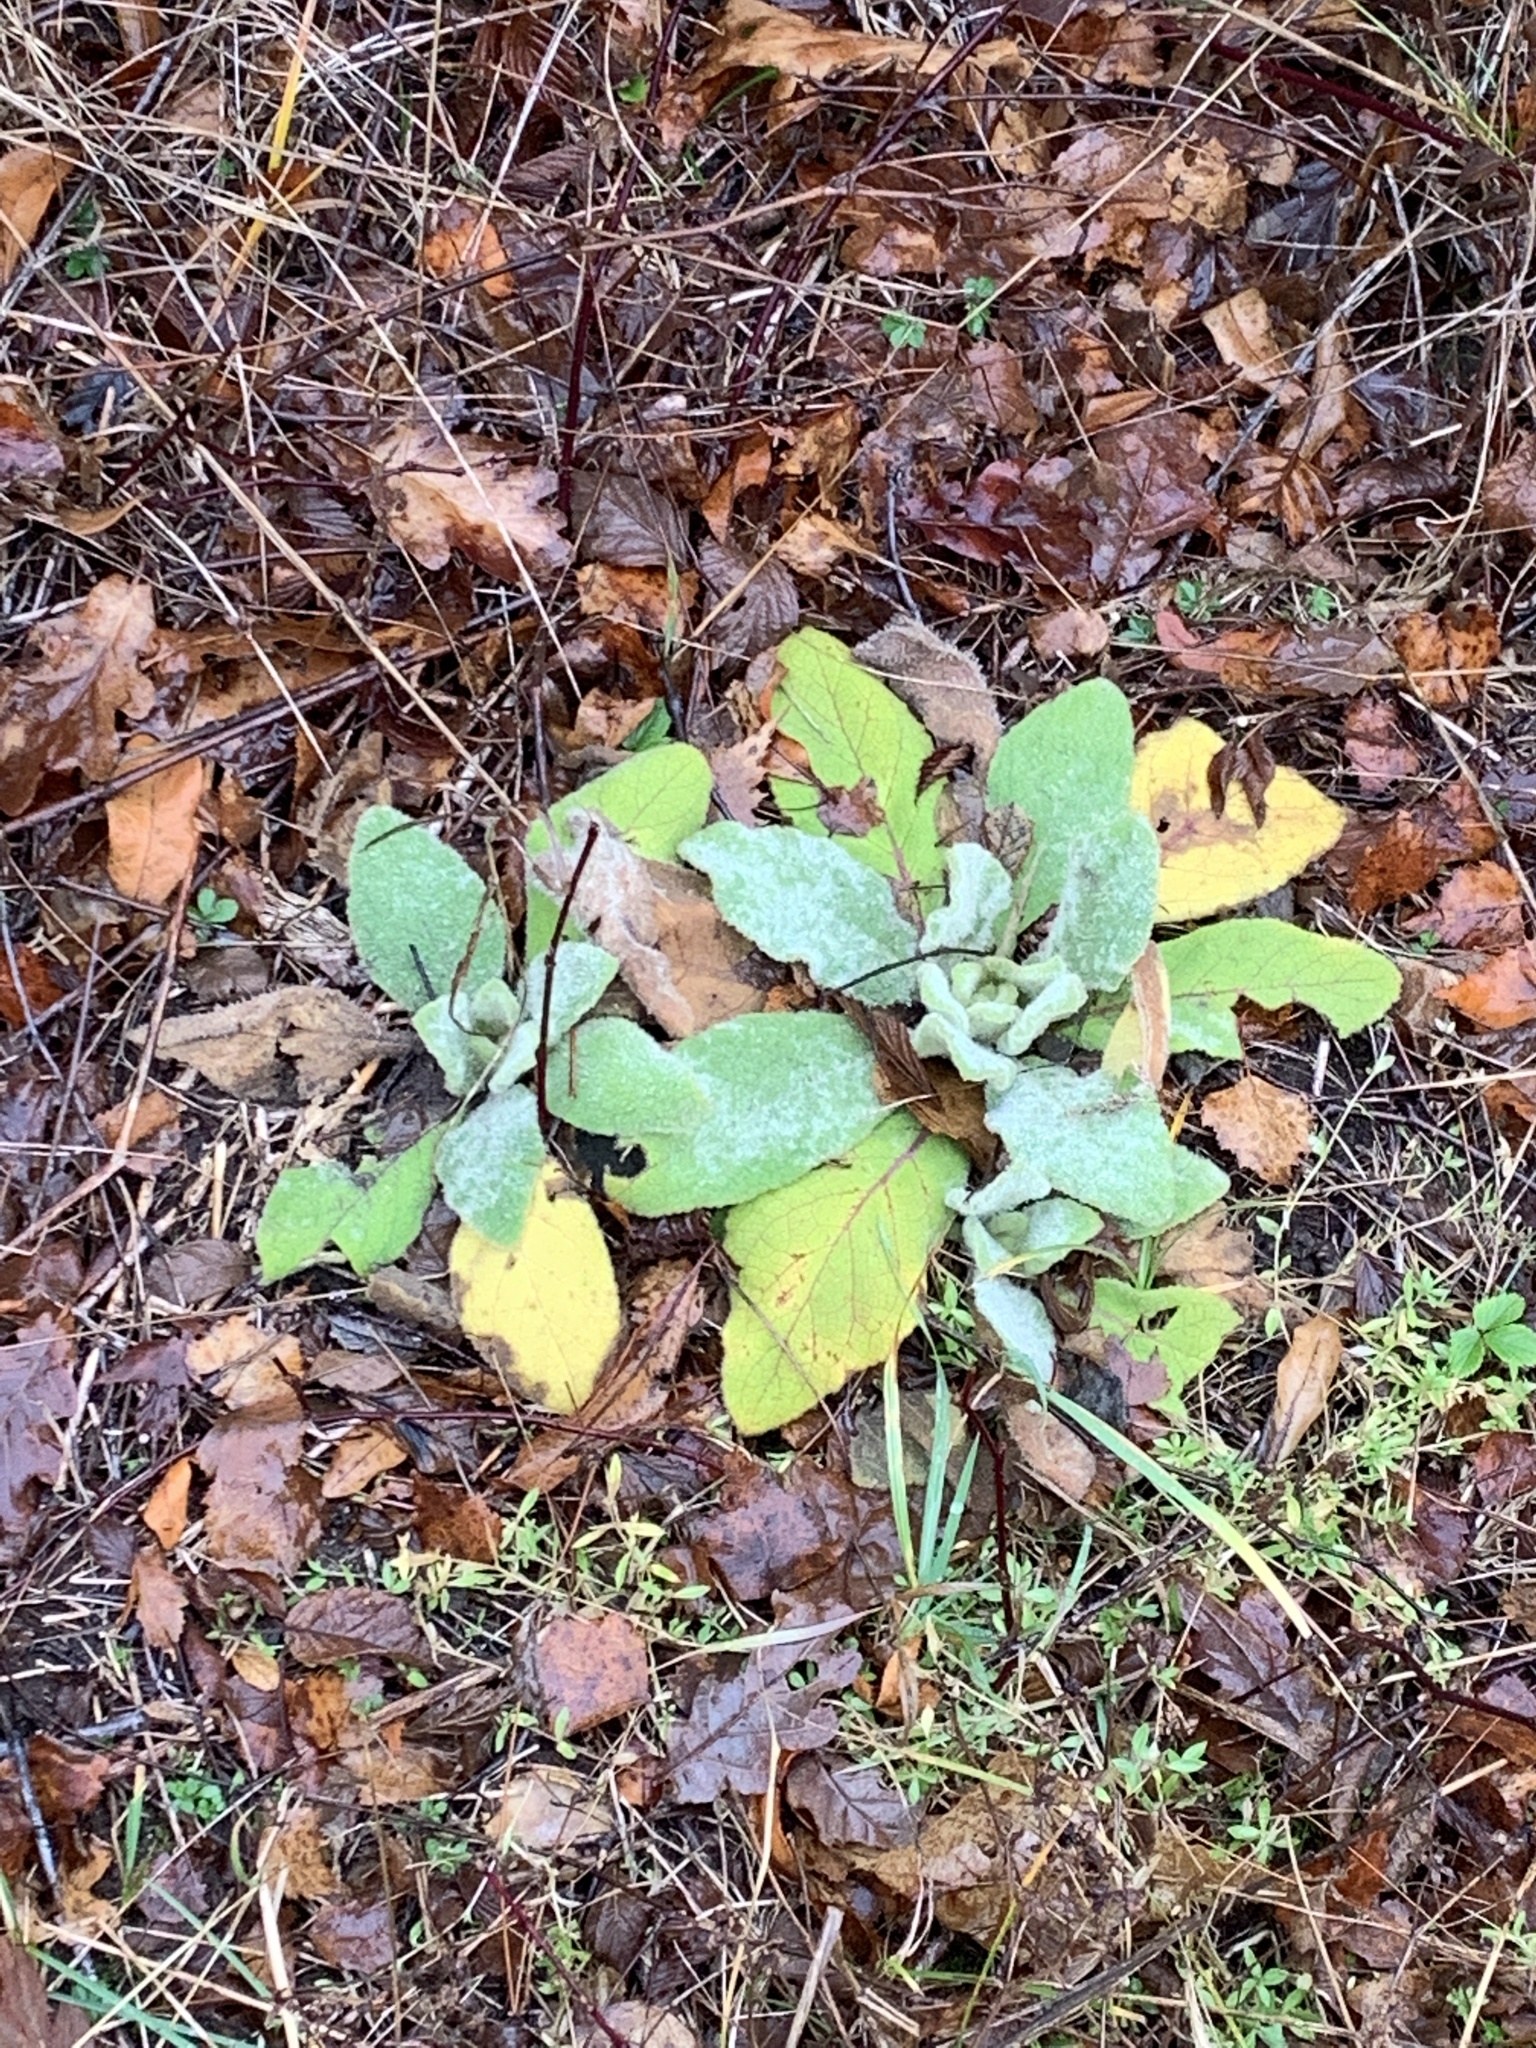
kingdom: Plantae
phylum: Tracheophyta
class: Magnoliopsida
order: Lamiales
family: Scrophulariaceae
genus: Verbascum
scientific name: Verbascum thapsus
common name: Common mullein
